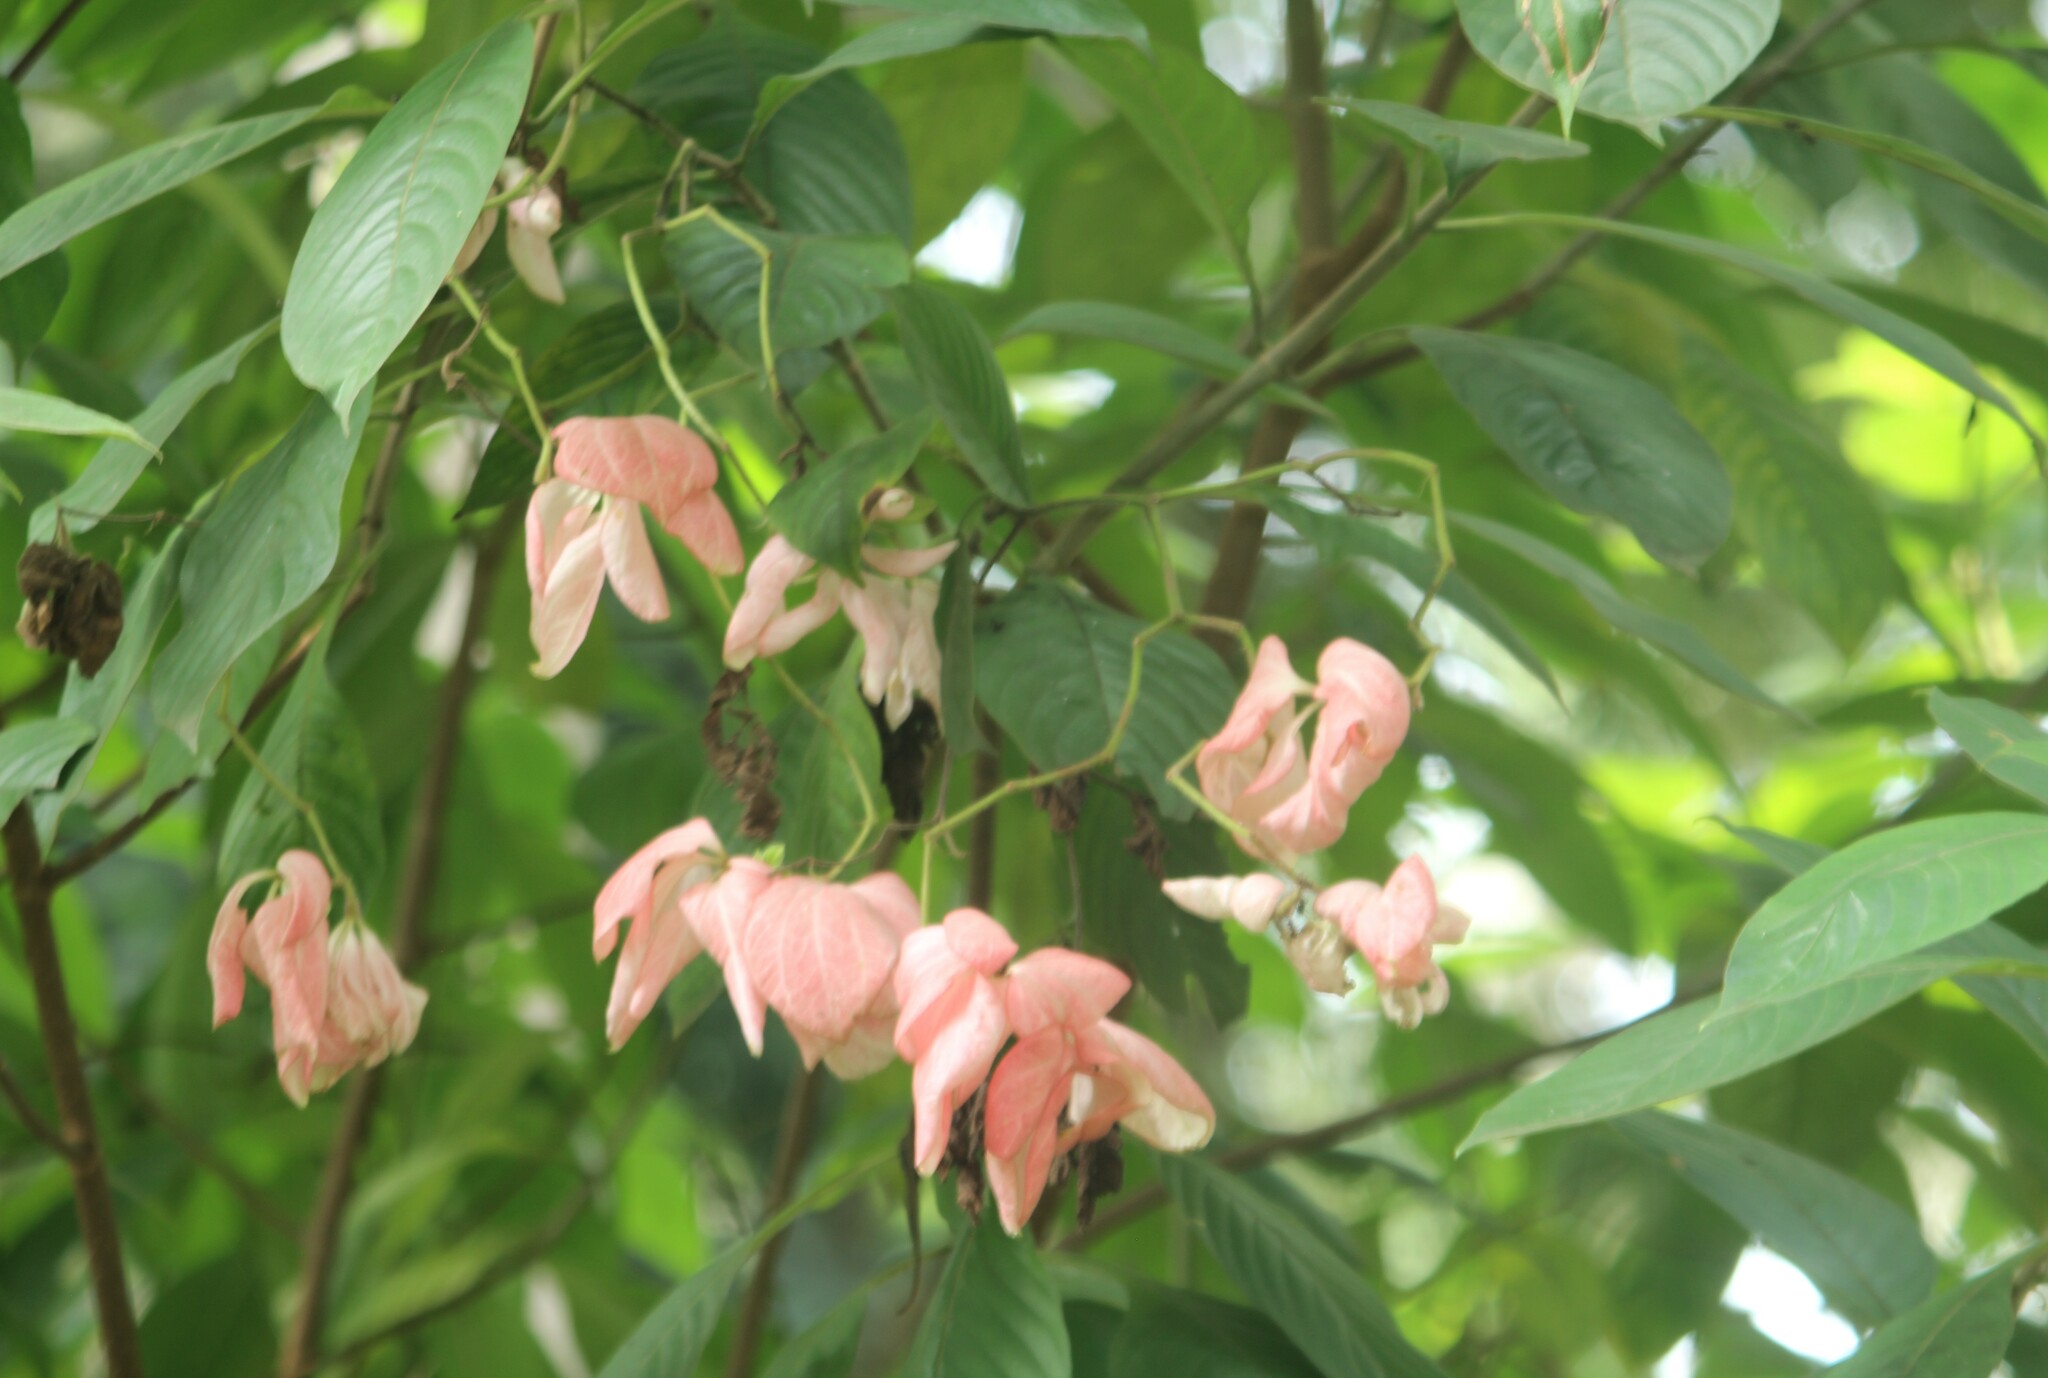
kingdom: Plantae
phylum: Tracheophyta
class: Magnoliopsida
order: Gentianales
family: Rubiaceae
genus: Mussaenda
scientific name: Mussaenda philippica
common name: Philippine mussaenda
